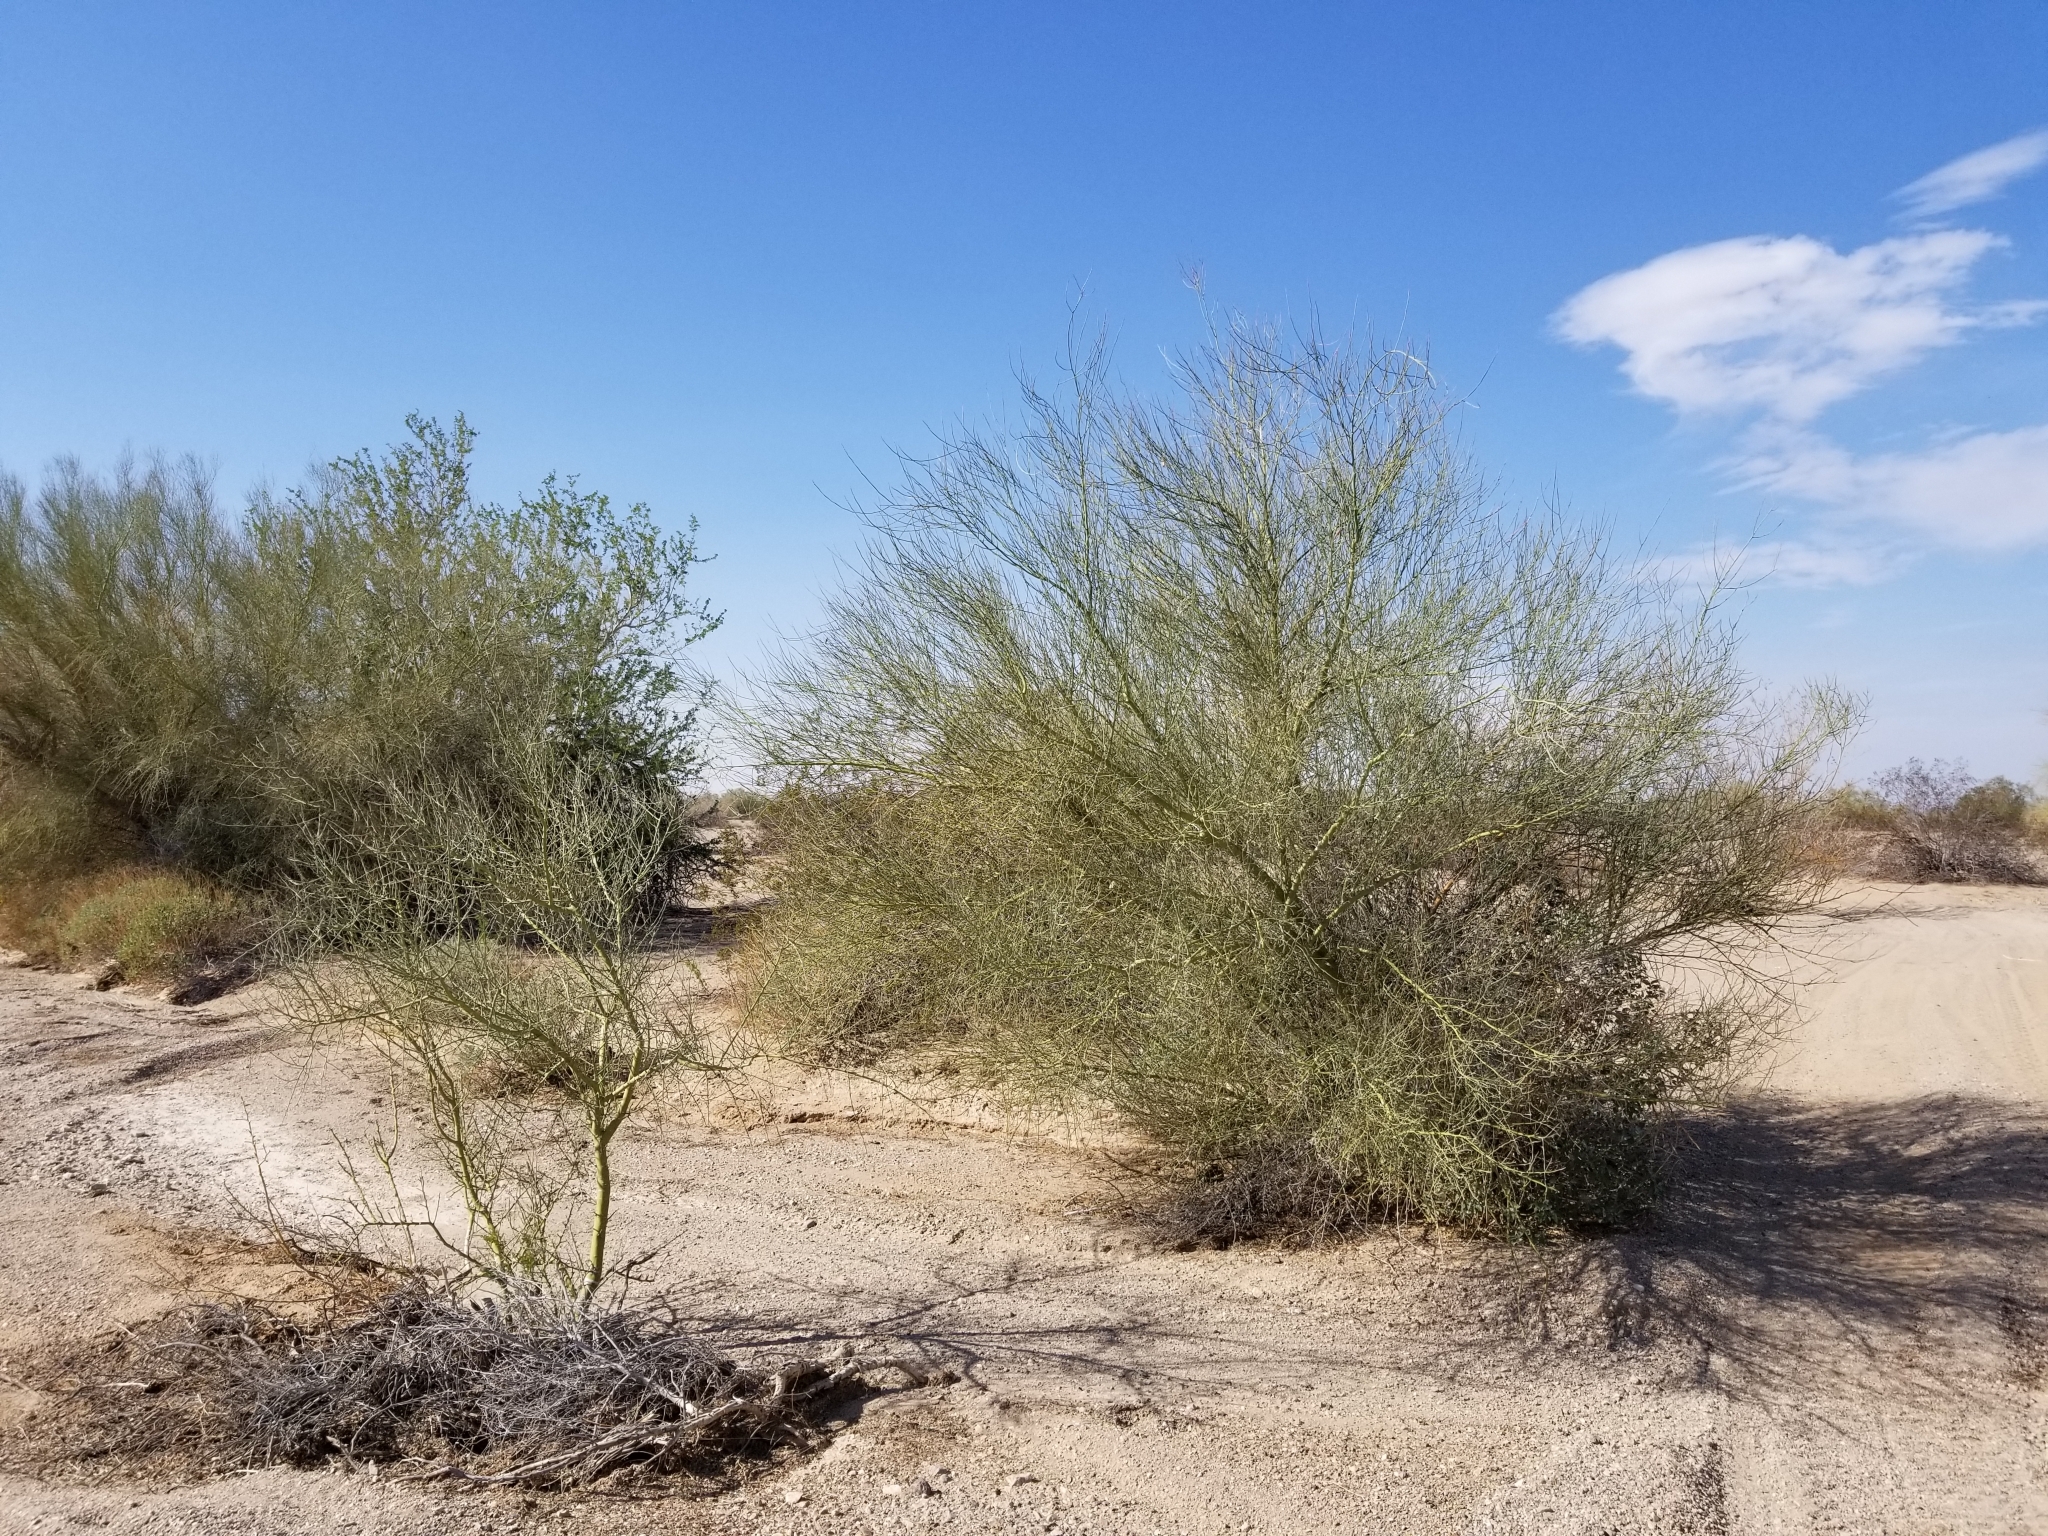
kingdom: Plantae
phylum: Tracheophyta
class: Magnoliopsida
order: Fabales
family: Fabaceae
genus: Parkinsonia
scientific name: Parkinsonia florida
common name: Blue paloverde
